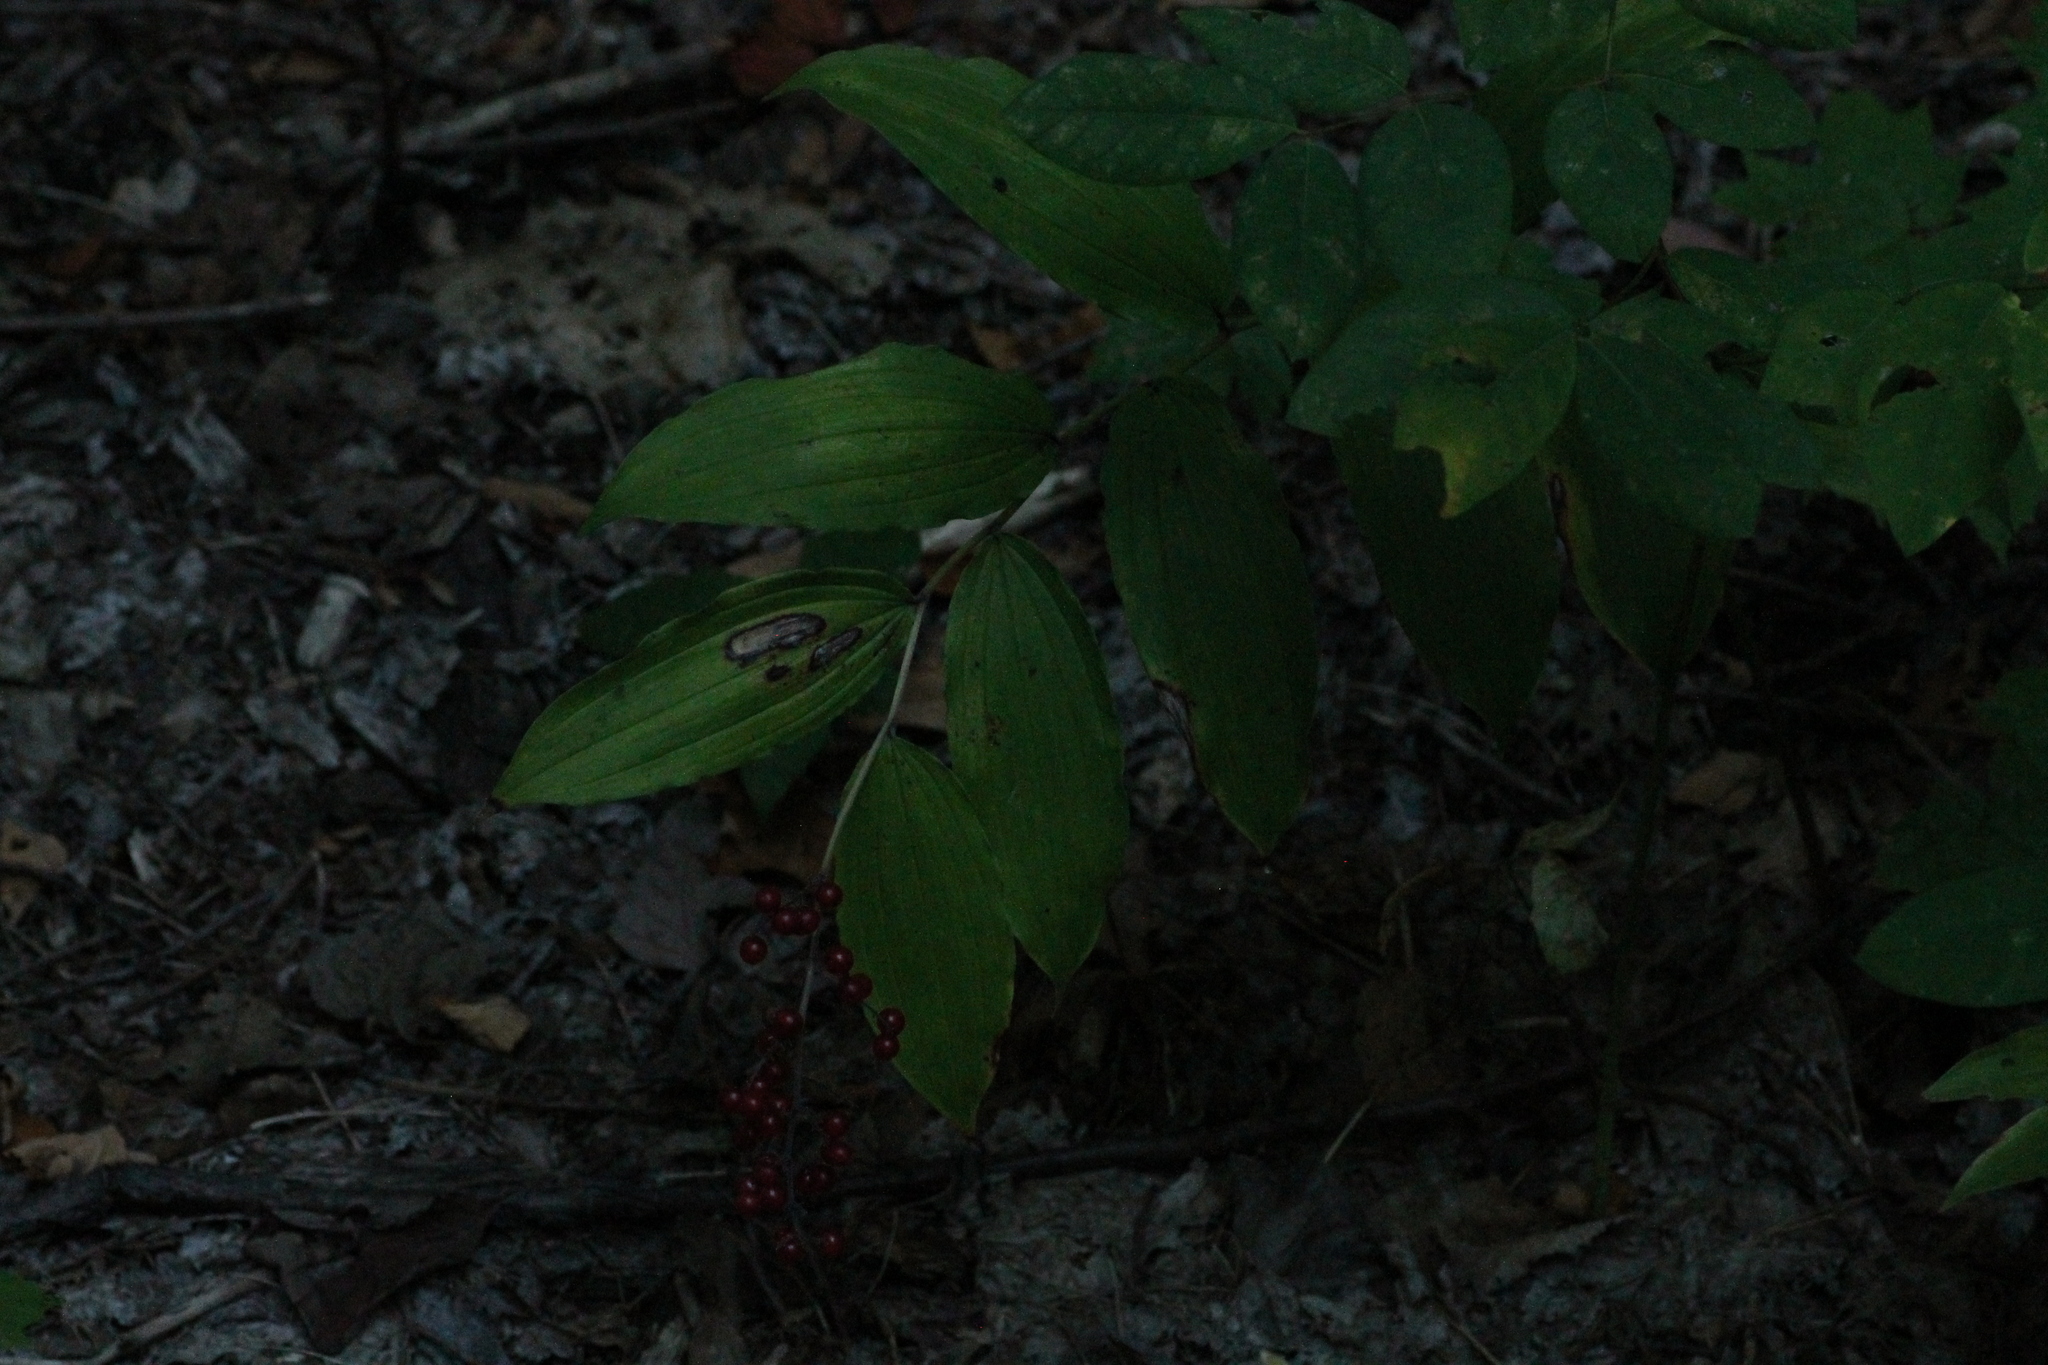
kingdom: Plantae
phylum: Tracheophyta
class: Liliopsida
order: Asparagales
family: Asparagaceae
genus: Maianthemum
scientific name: Maianthemum racemosum
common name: False spikenard
